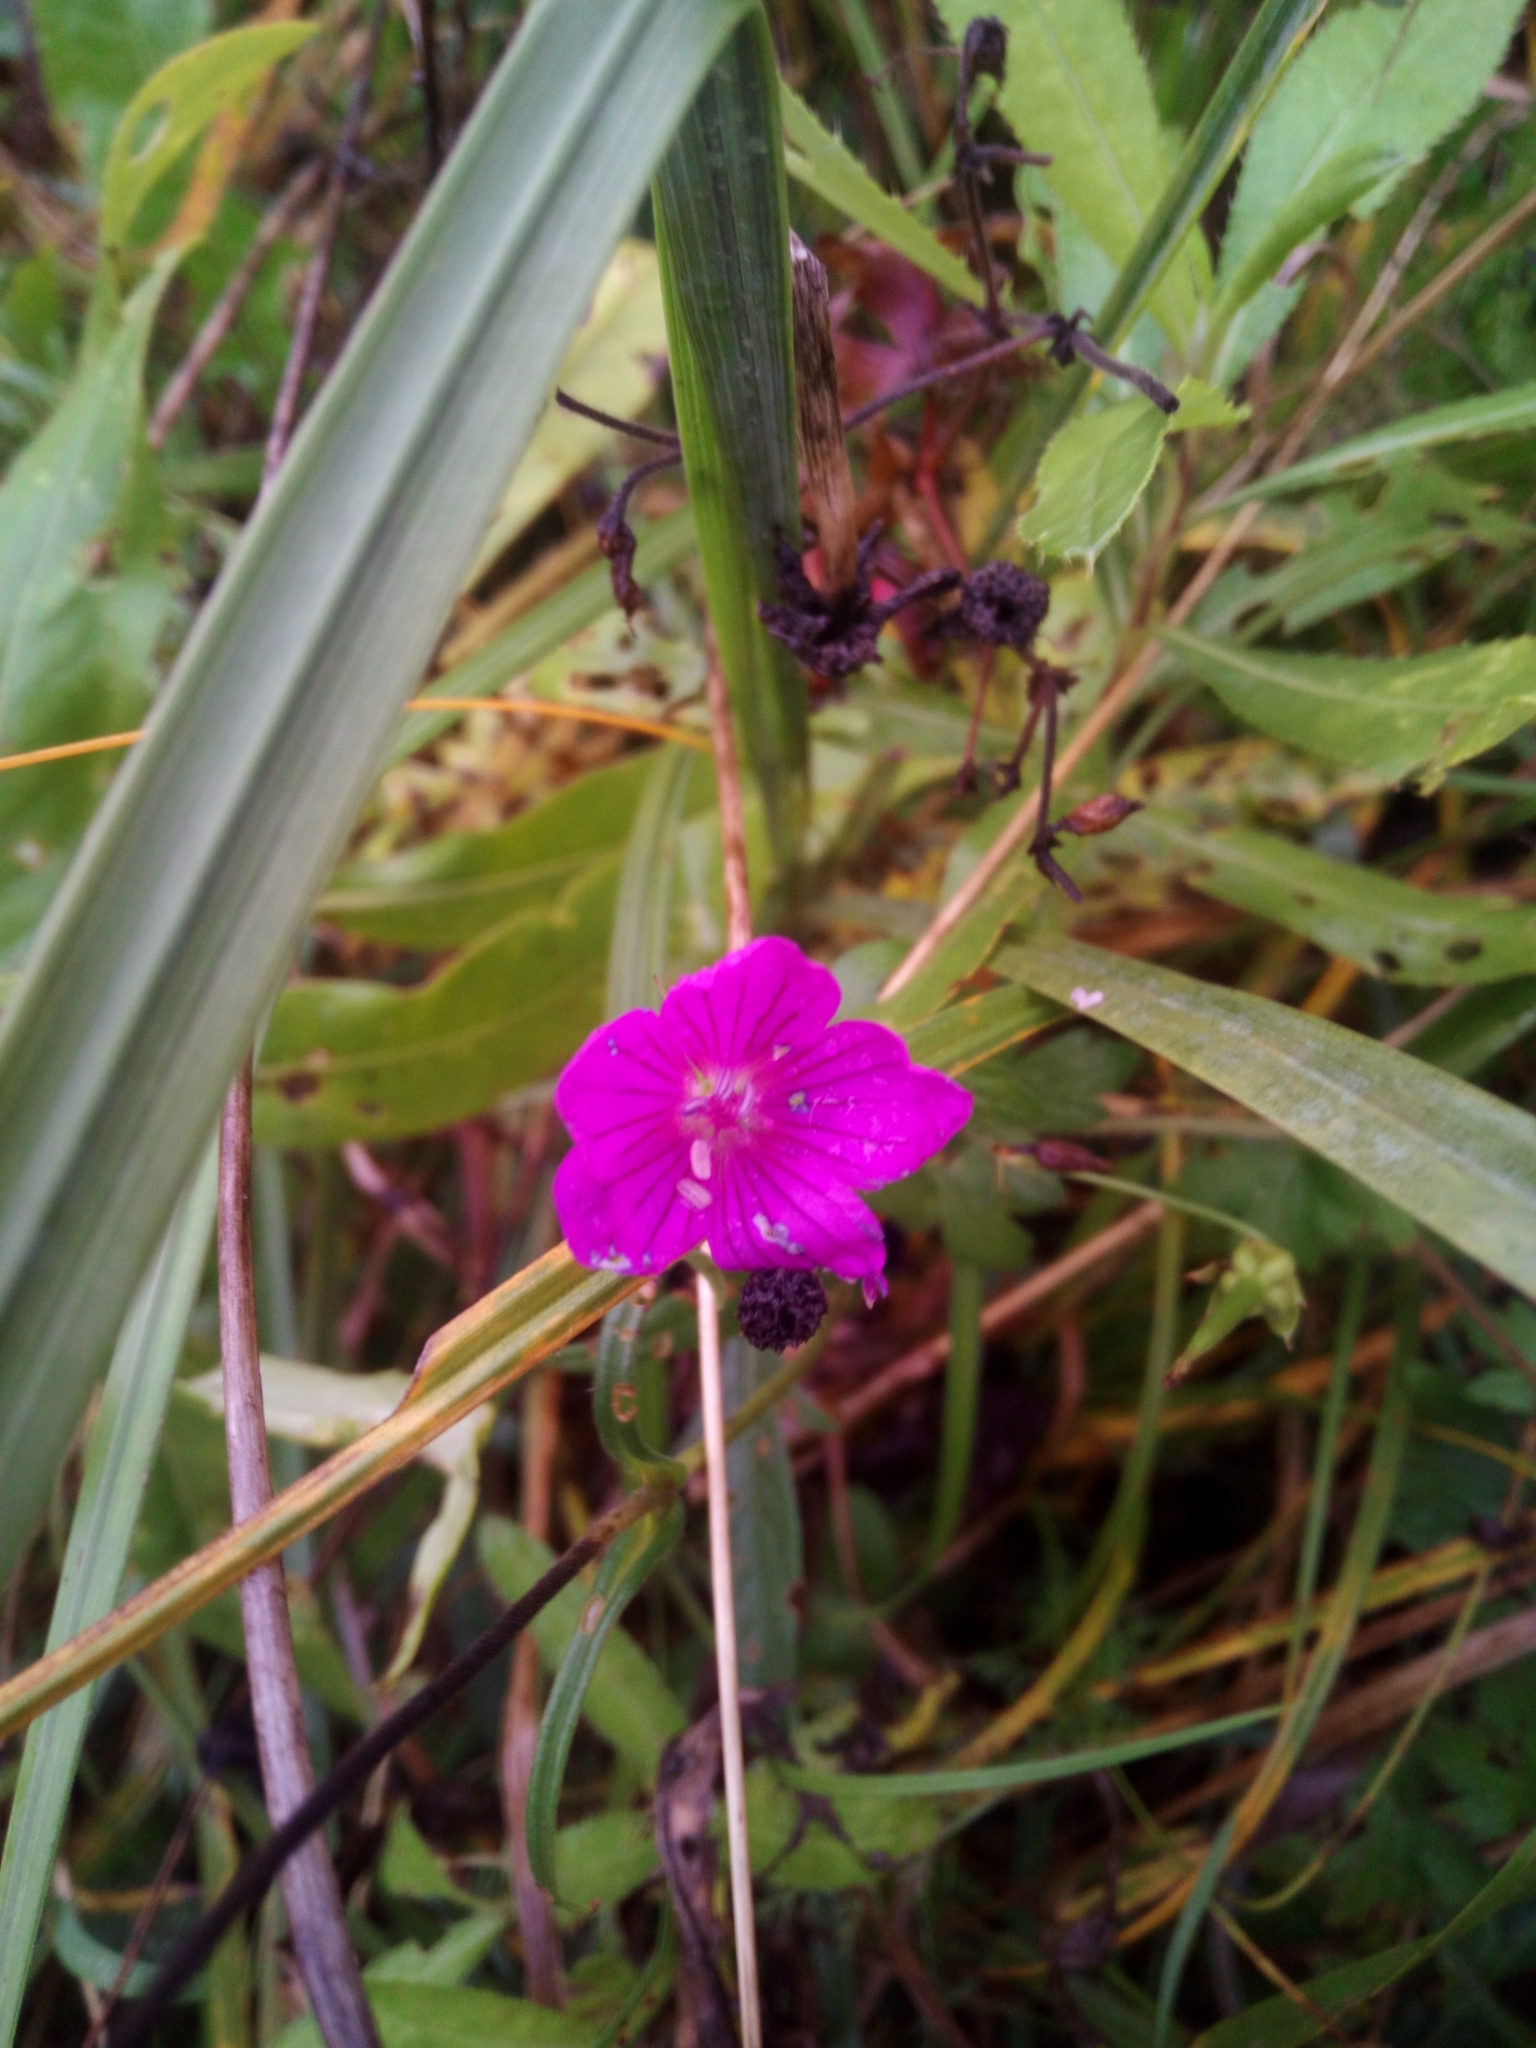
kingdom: Plantae
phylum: Tracheophyta
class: Magnoliopsida
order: Geraniales
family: Geraniaceae
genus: Geranium
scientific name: Geranium palustre
